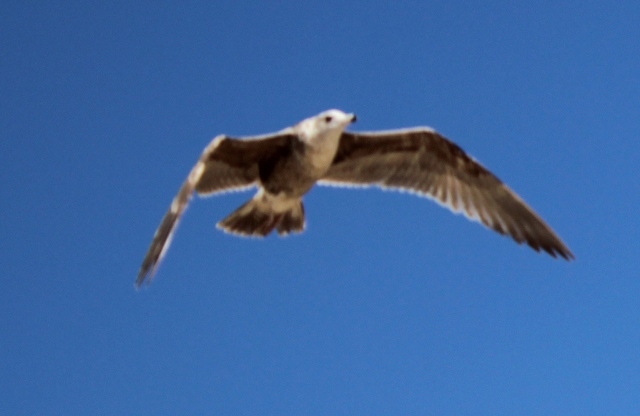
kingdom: Animalia
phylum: Chordata
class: Aves
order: Charadriiformes
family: Laridae
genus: Larus
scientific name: Larus californicus
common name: California gull
